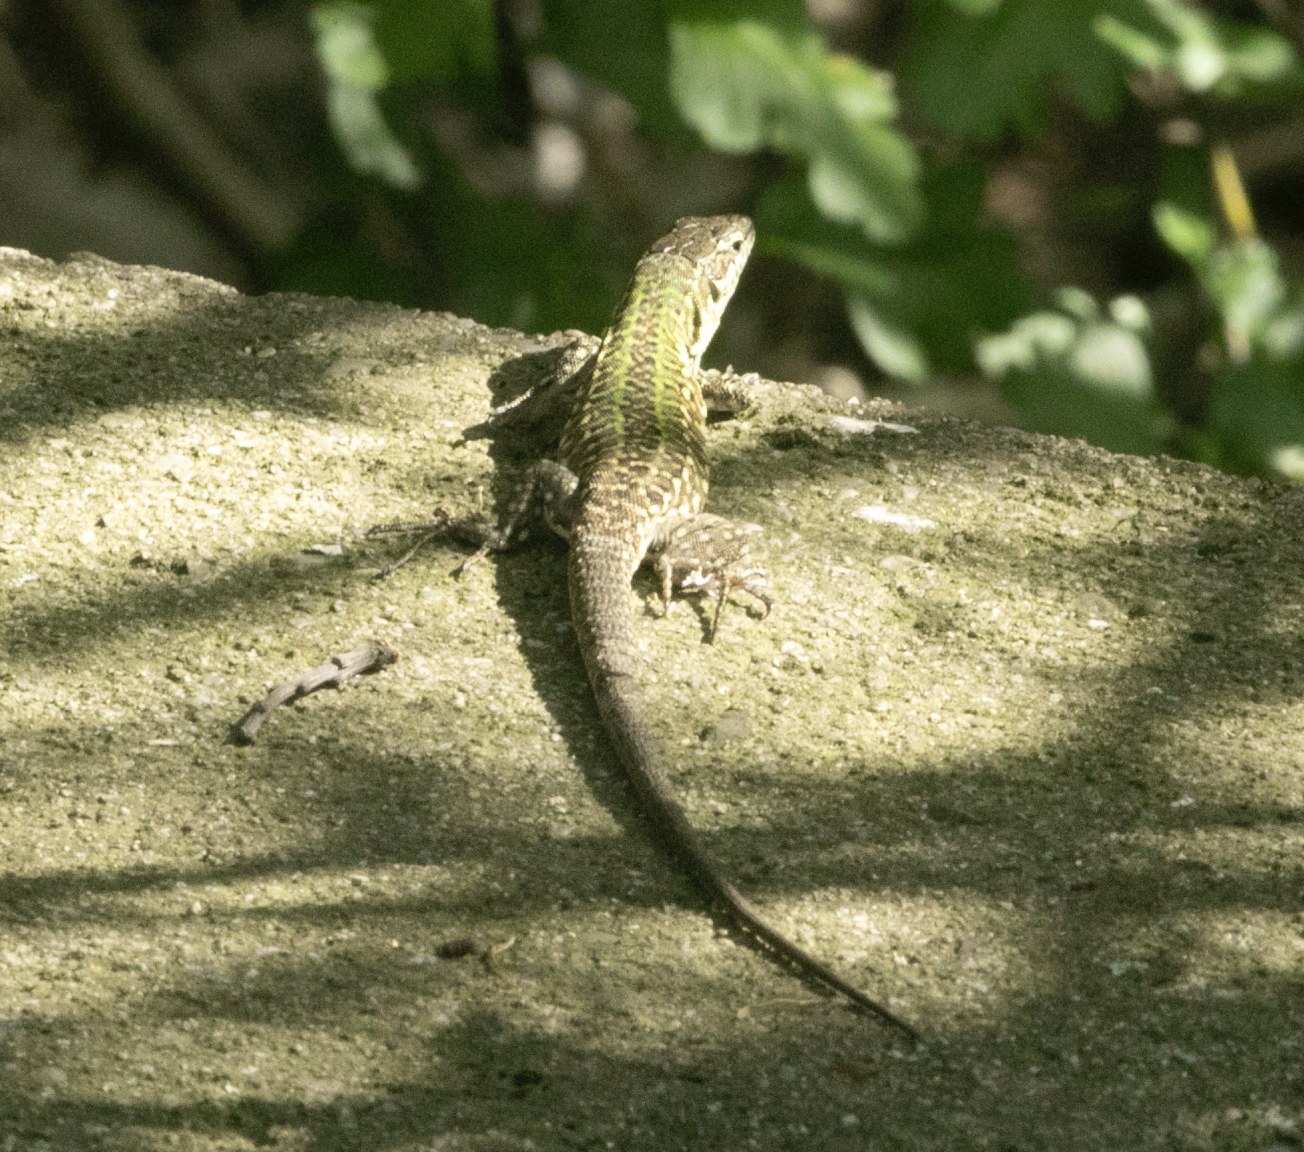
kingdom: Animalia
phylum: Chordata
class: Squamata
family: Lacertidae
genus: Podarcis
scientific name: Podarcis siculus
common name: Italian wall lizard
